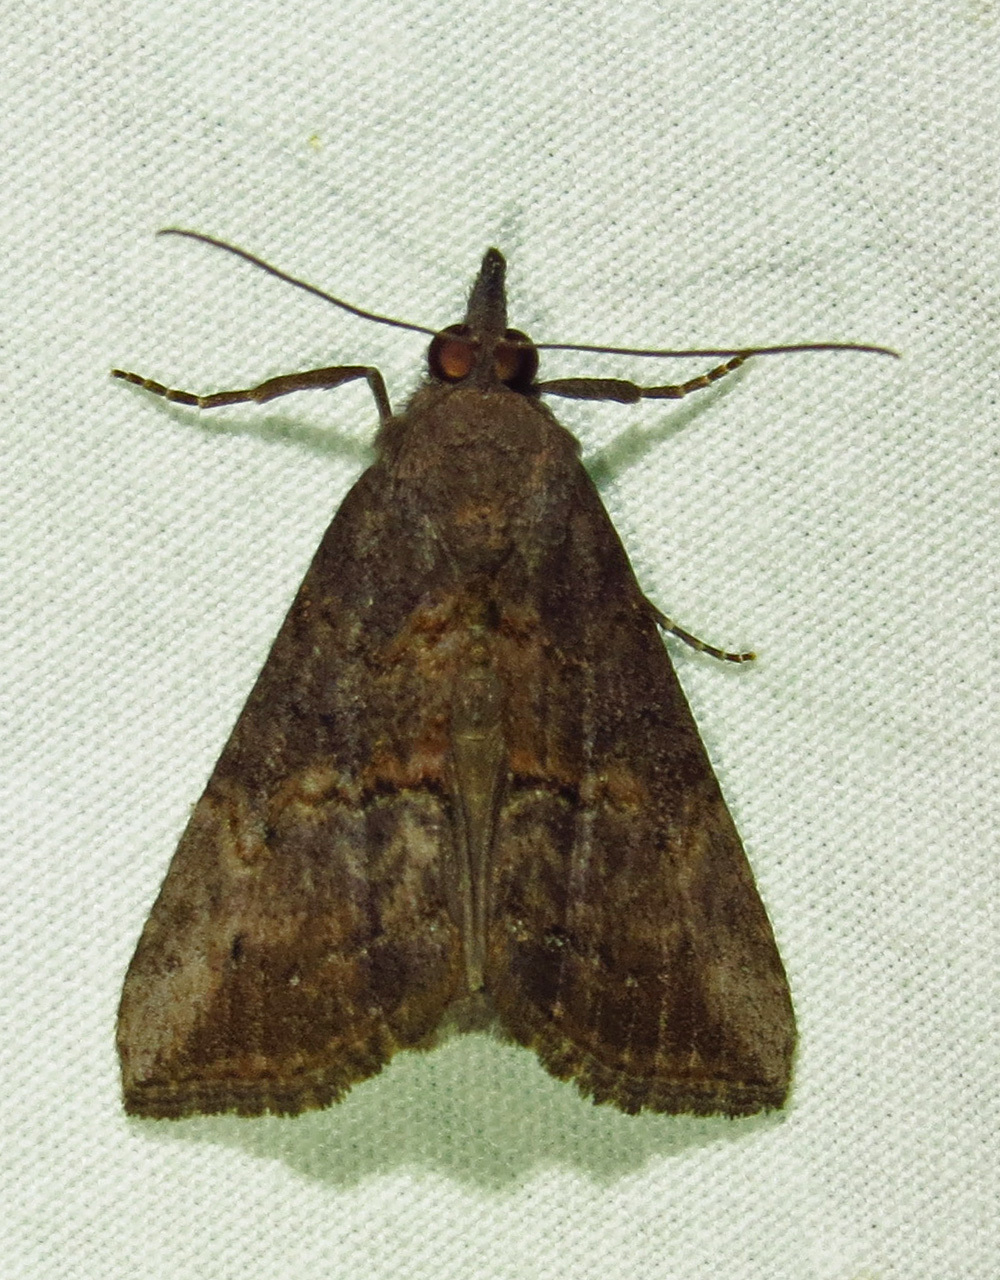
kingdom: Animalia
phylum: Arthropoda
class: Insecta
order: Lepidoptera
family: Erebidae
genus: Hypena
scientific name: Hypena scabra
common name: Green cloverworm
